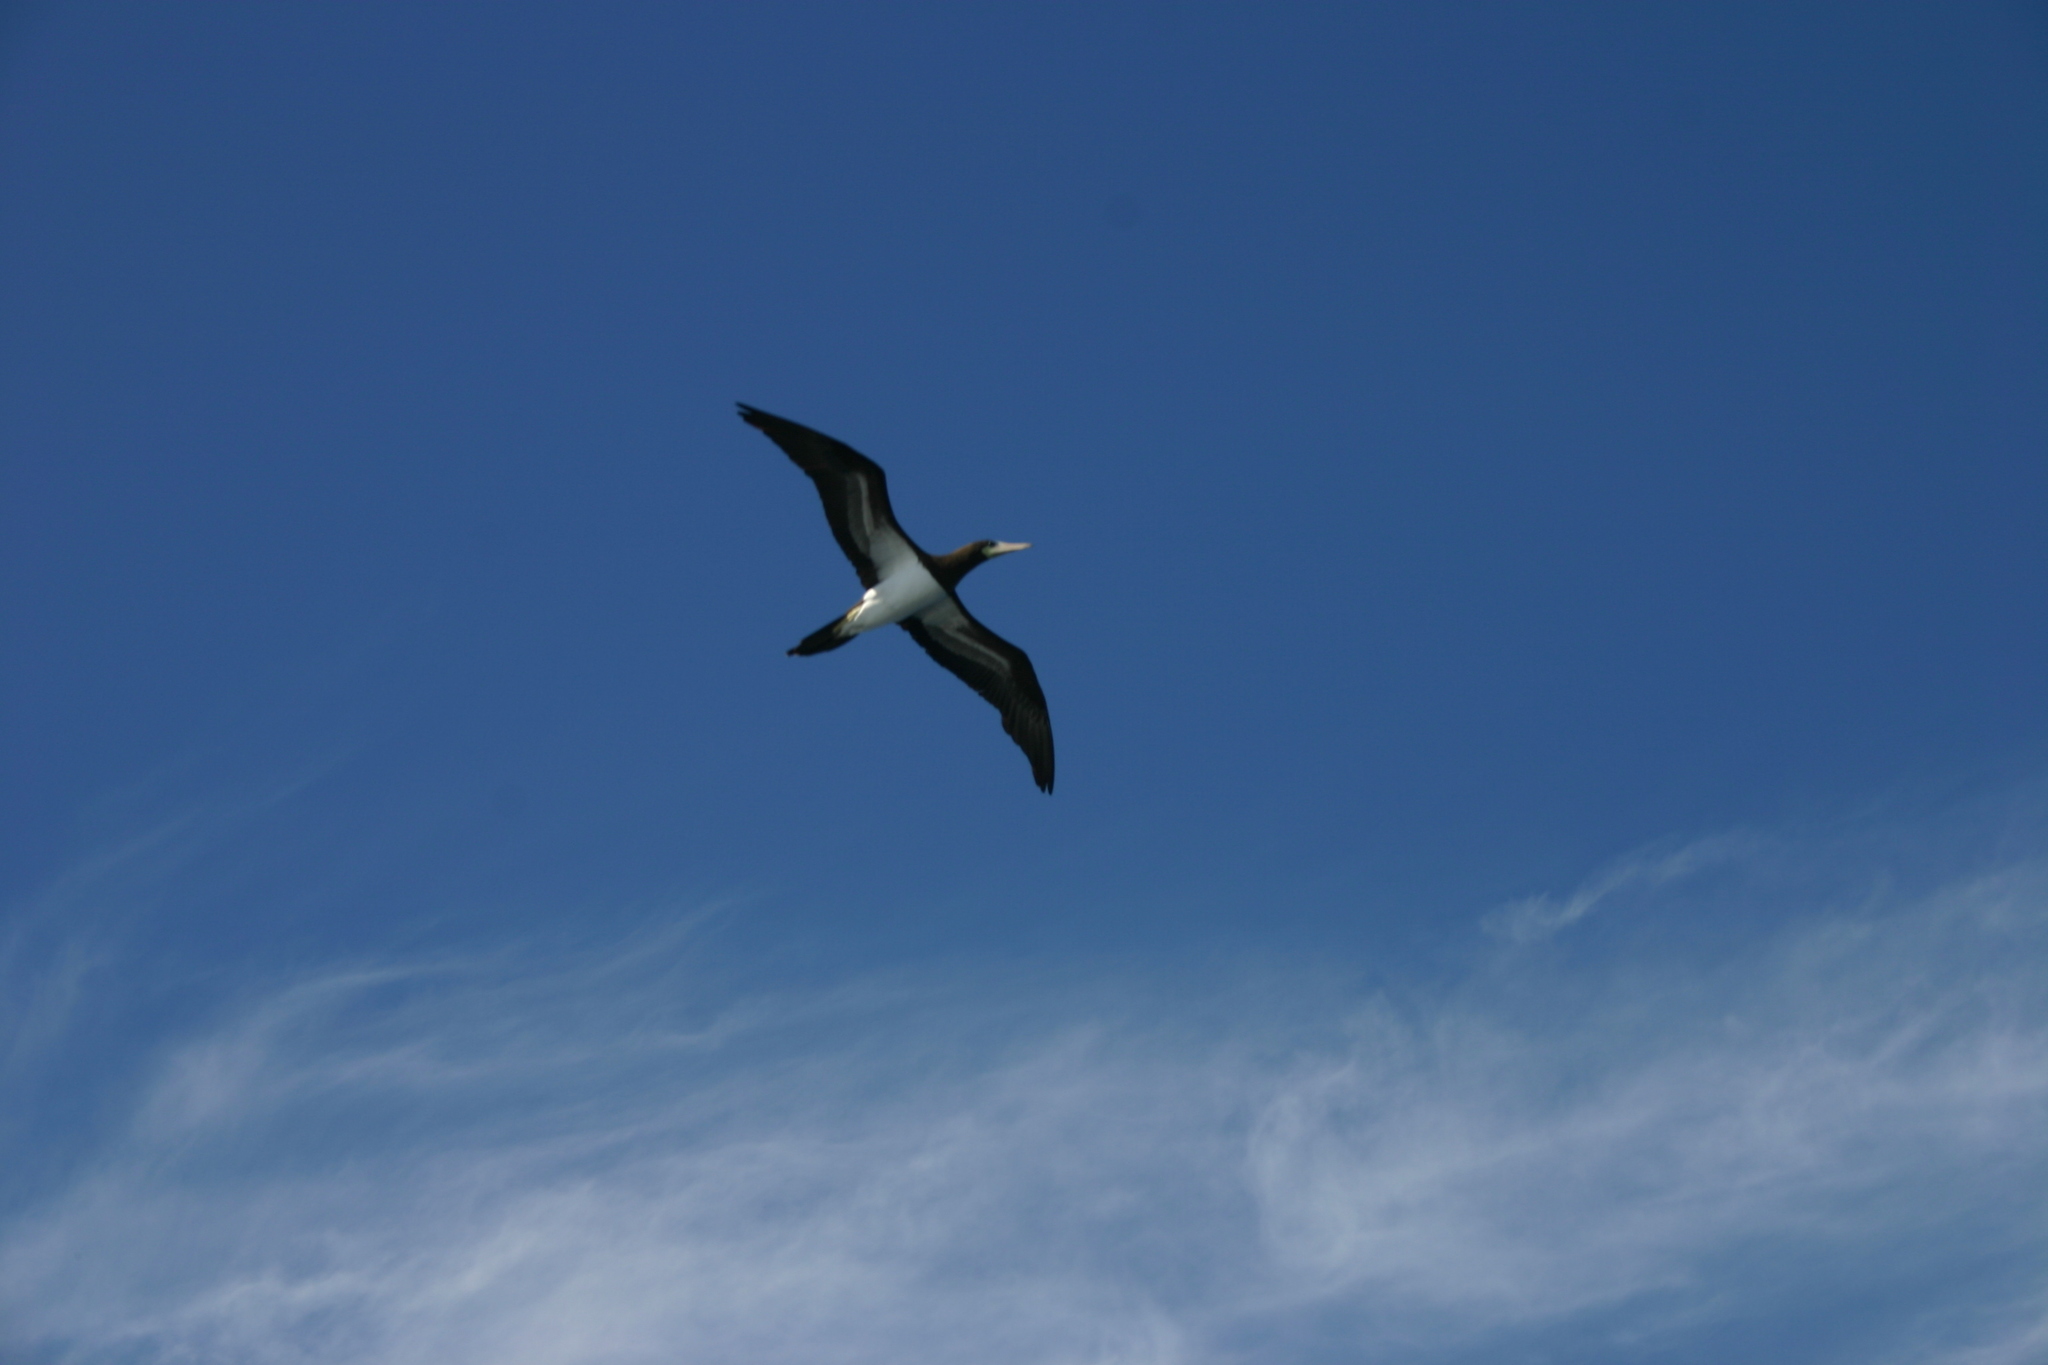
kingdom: Animalia
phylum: Chordata
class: Aves
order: Suliformes
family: Sulidae
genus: Sula
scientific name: Sula leucogaster
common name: Brown booby
